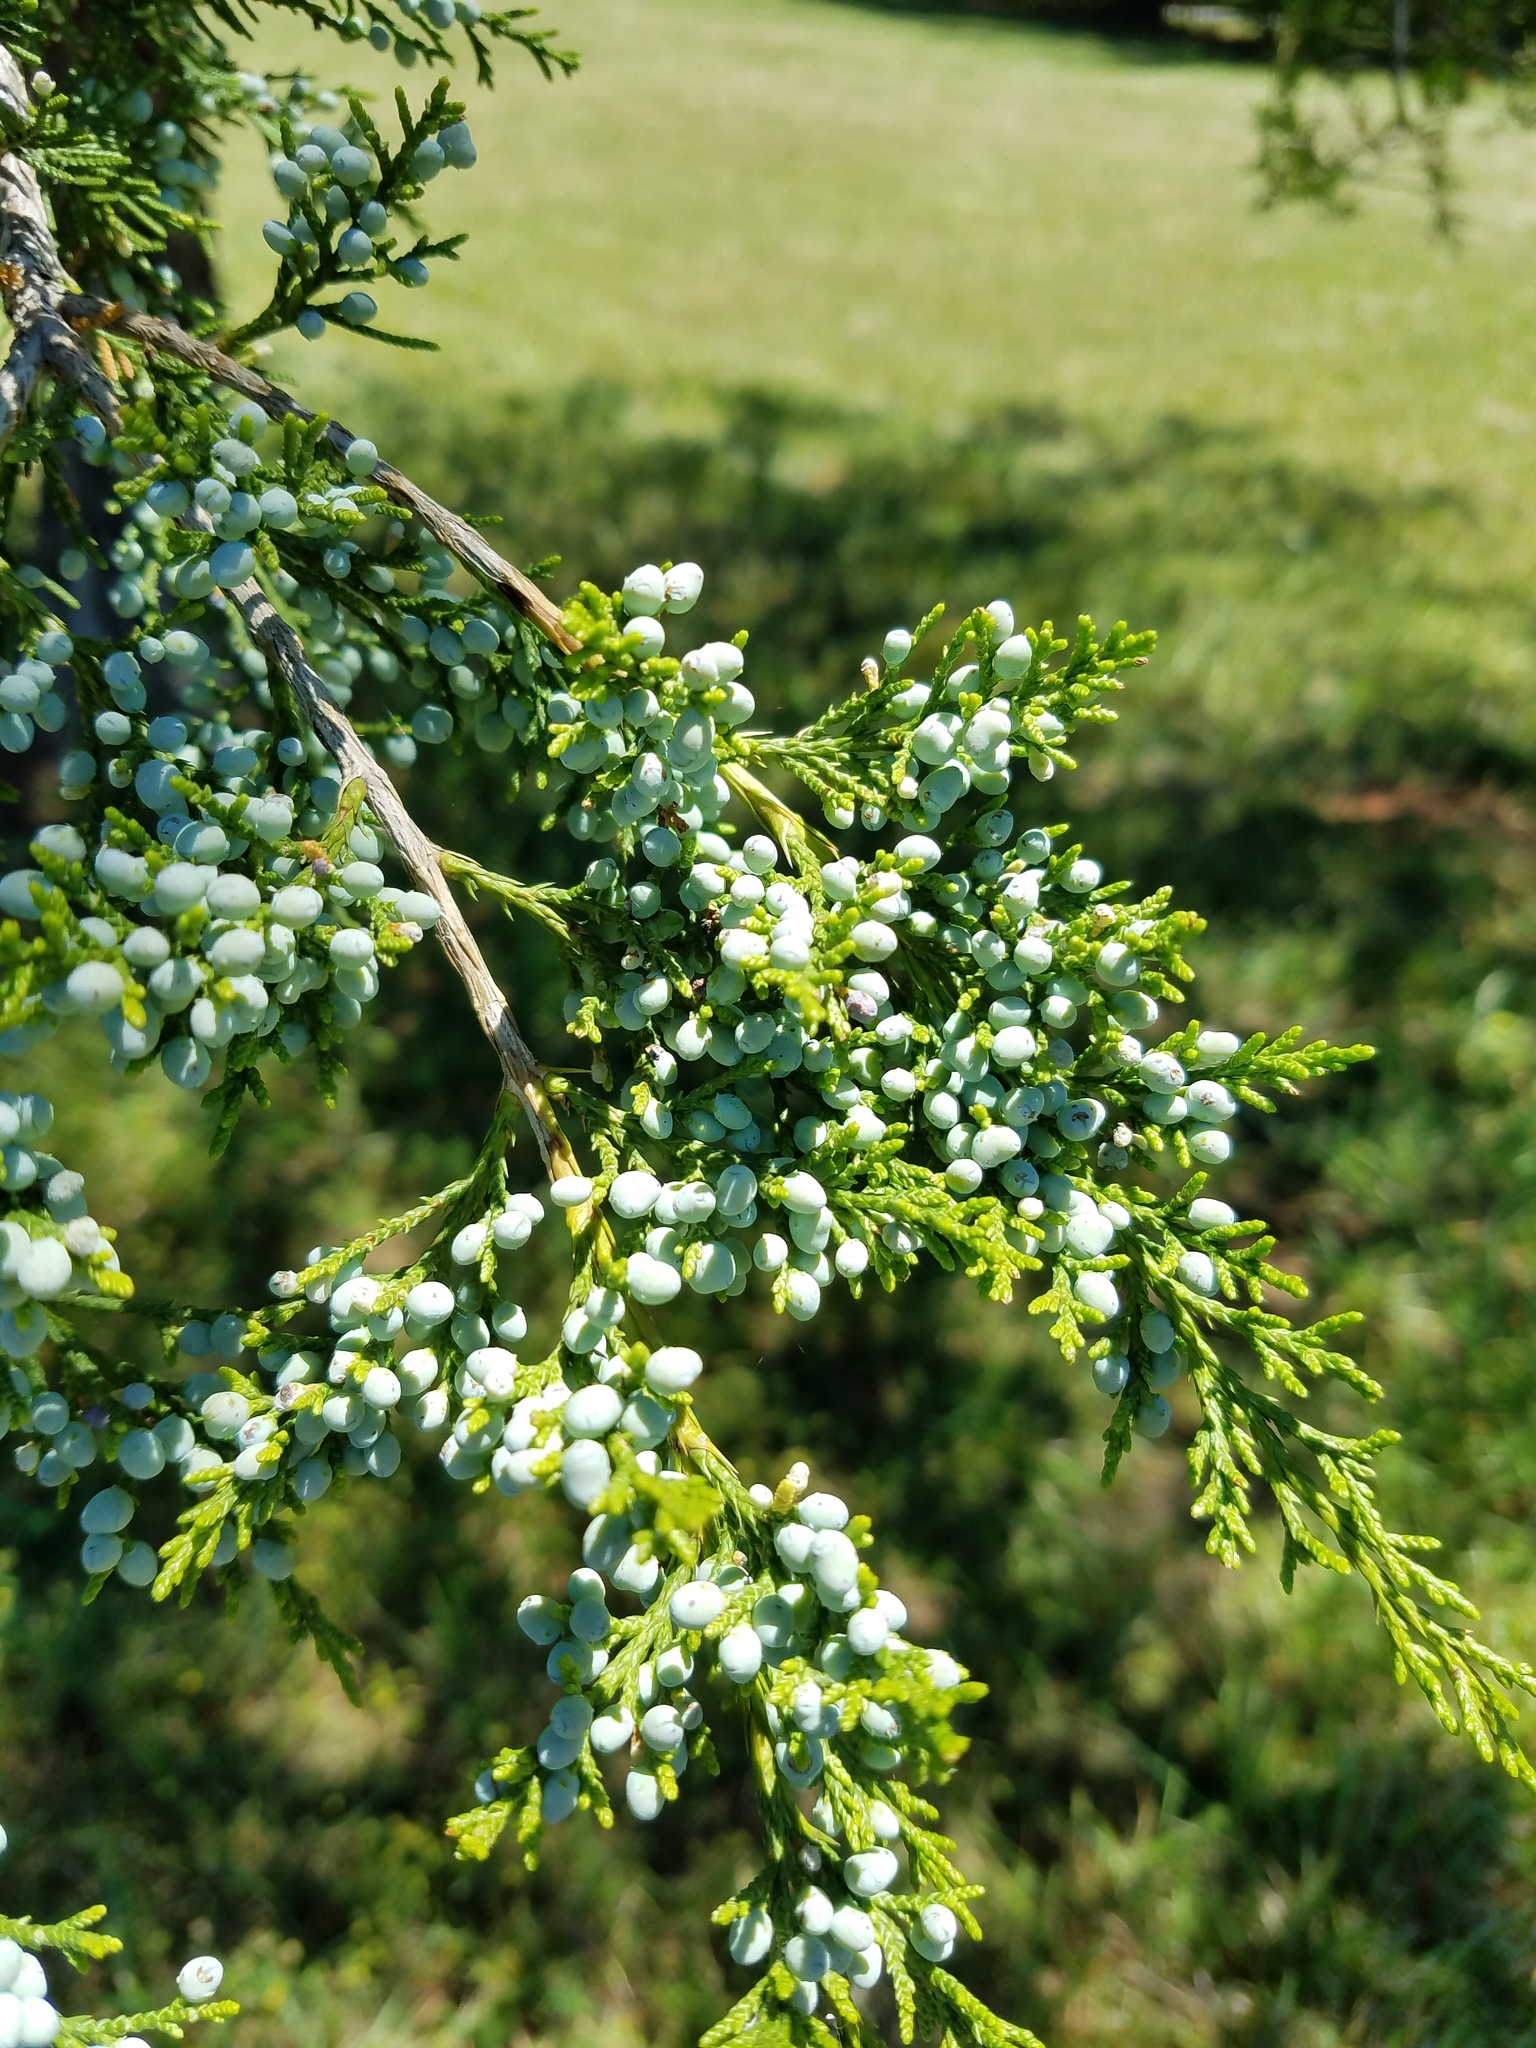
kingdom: Plantae
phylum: Tracheophyta
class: Pinopsida
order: Pinales
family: Cupressaceae
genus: Juniperus
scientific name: Juniperus virginiana
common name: Red juniper
